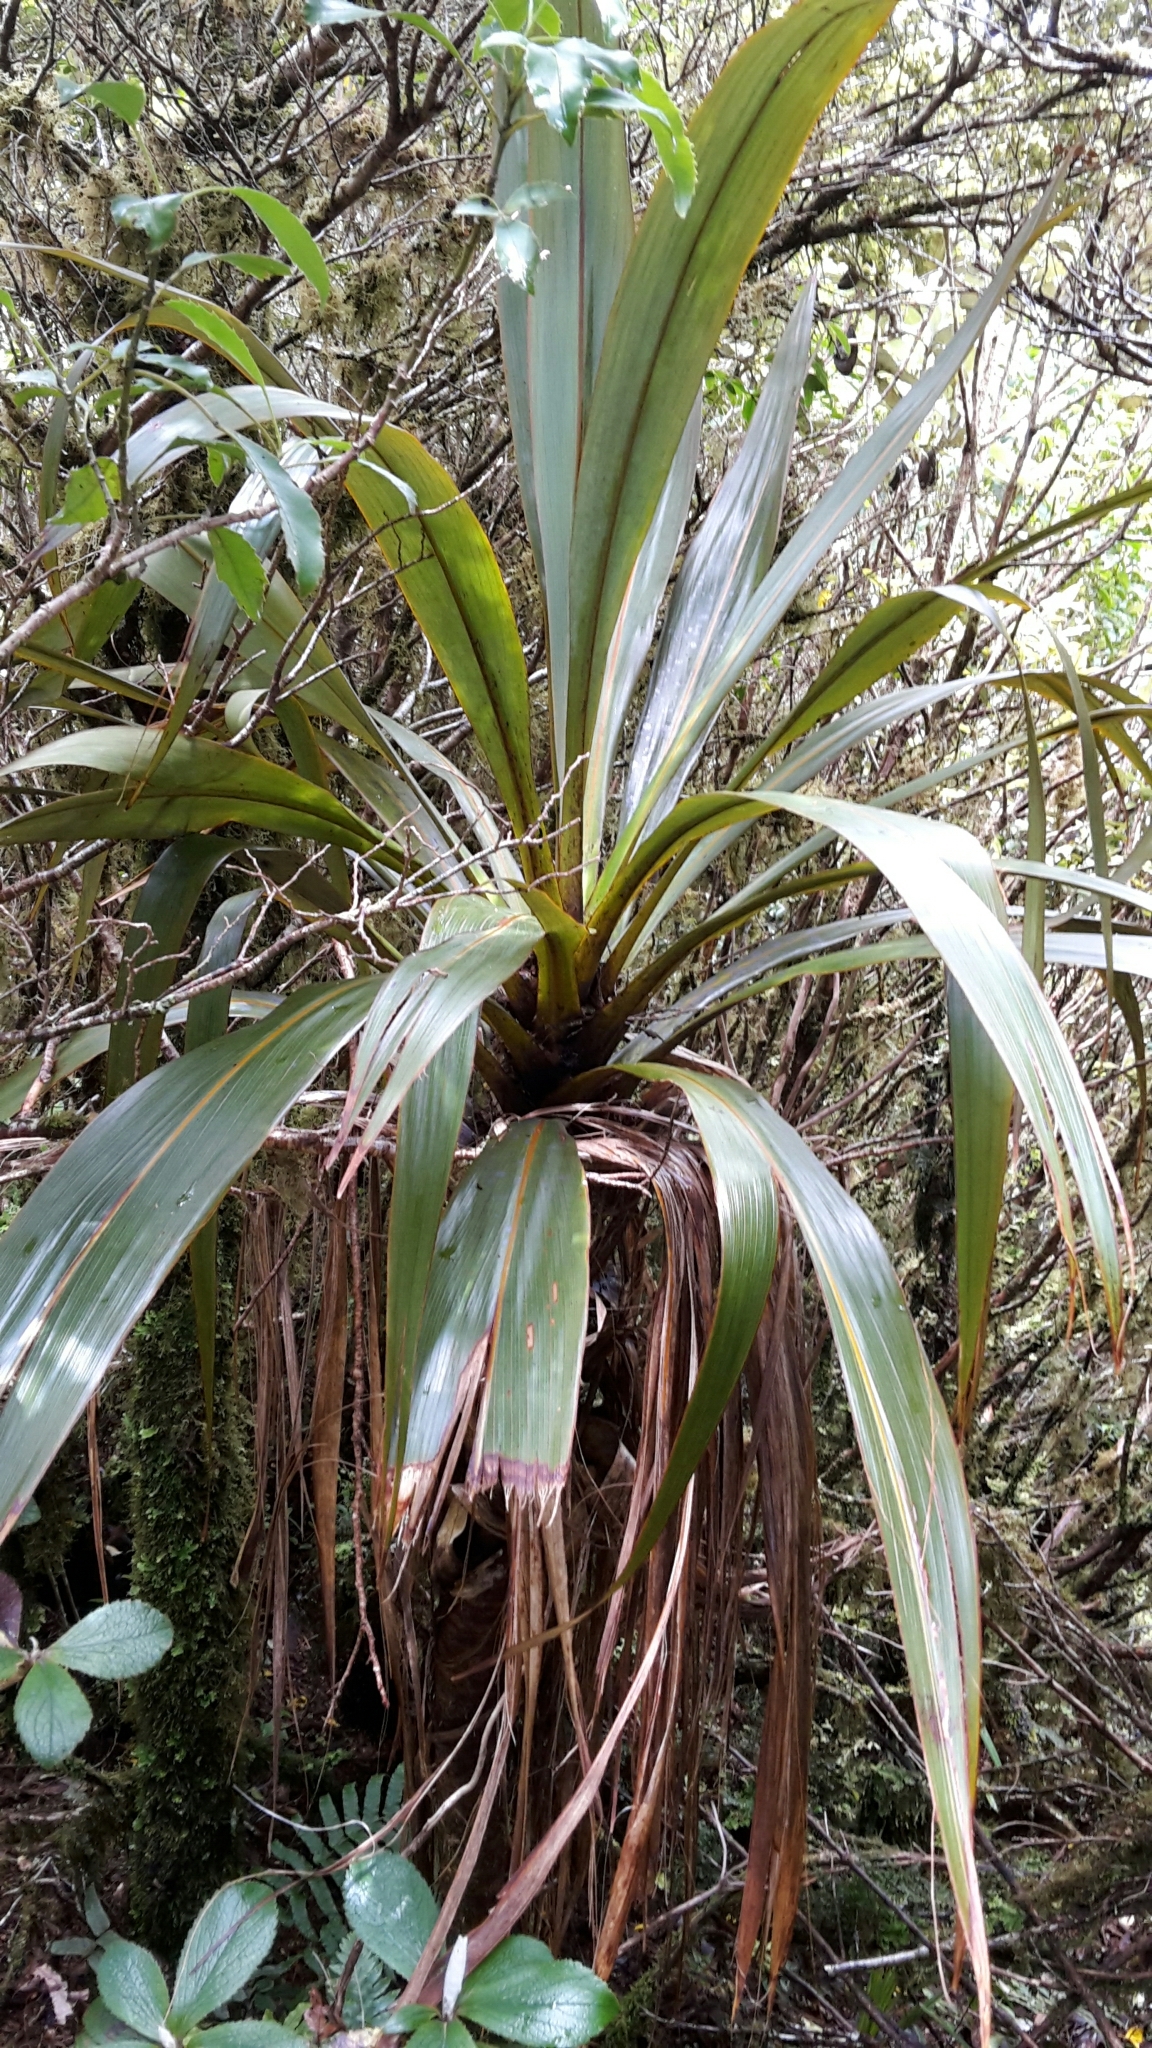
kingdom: Plantae
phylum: Tracheophyta
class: Liliopsida
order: Asparagales
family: Asparagaceae
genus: Cordyline
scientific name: Cordyline indivisa
